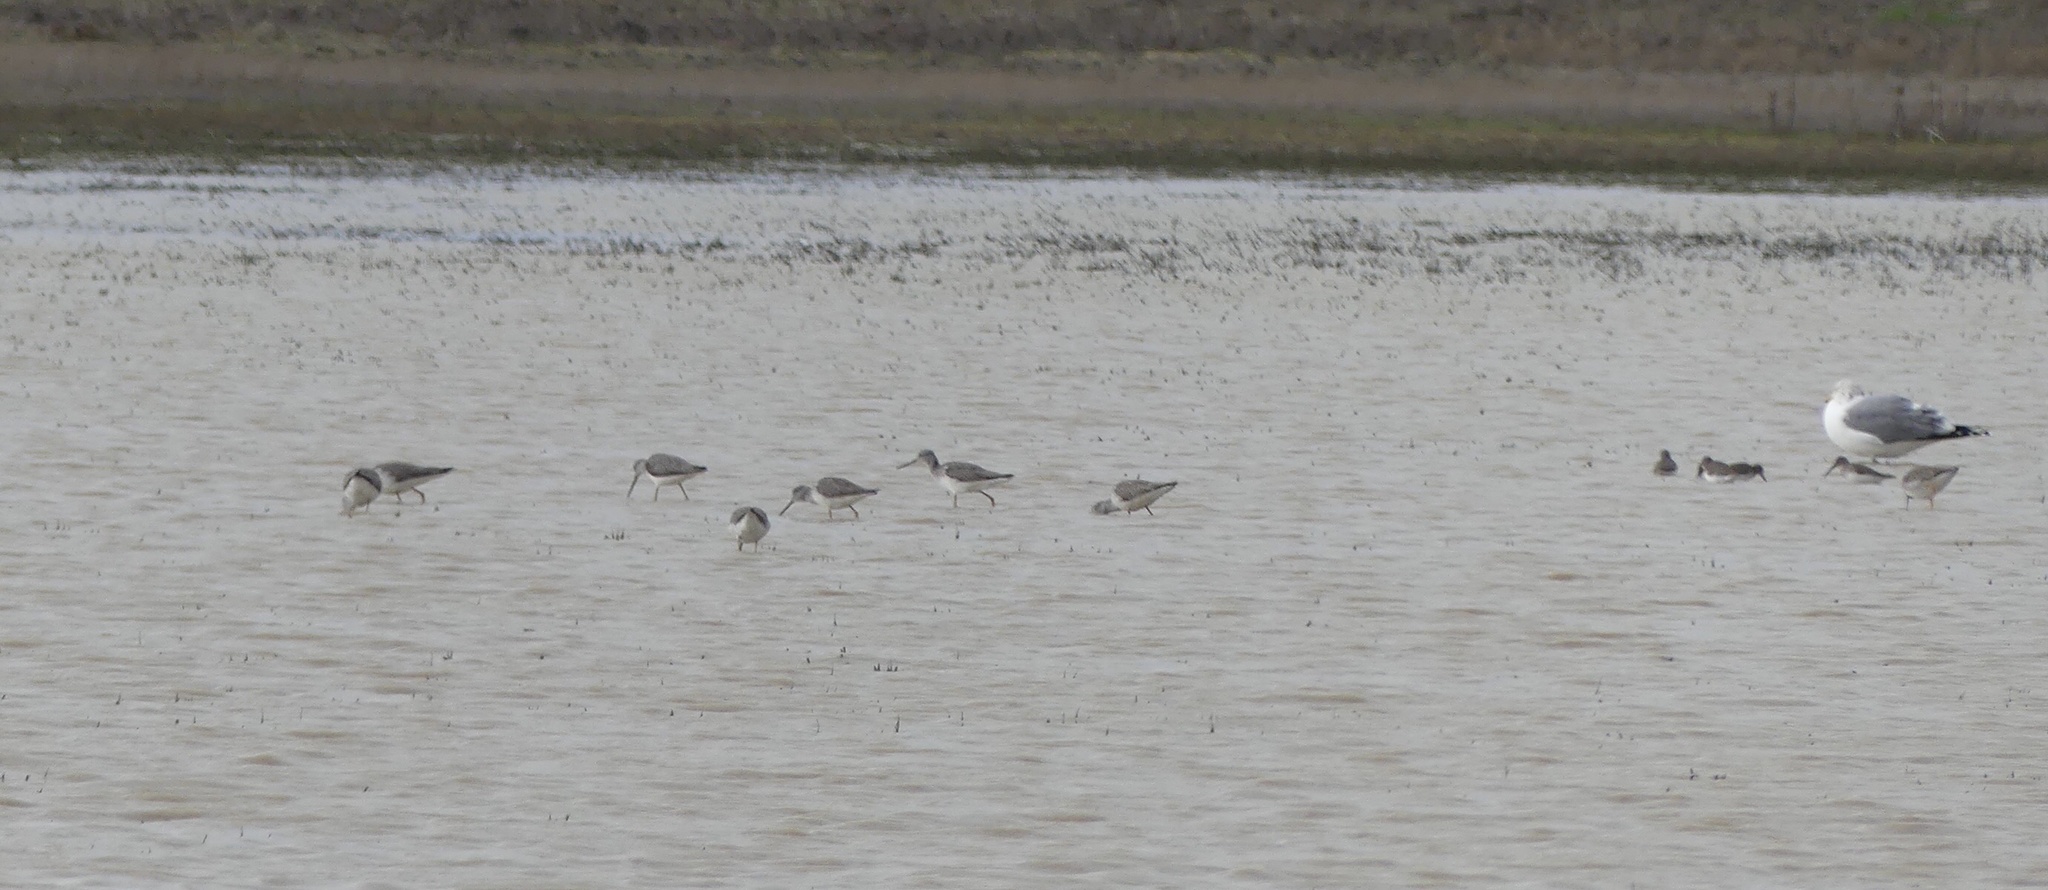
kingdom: Animalia
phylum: Chordata
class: Aves
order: Charadriiformes
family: Scolopacidae
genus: Tringa
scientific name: Tringa melanoleuca
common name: Greater yellowlegs
